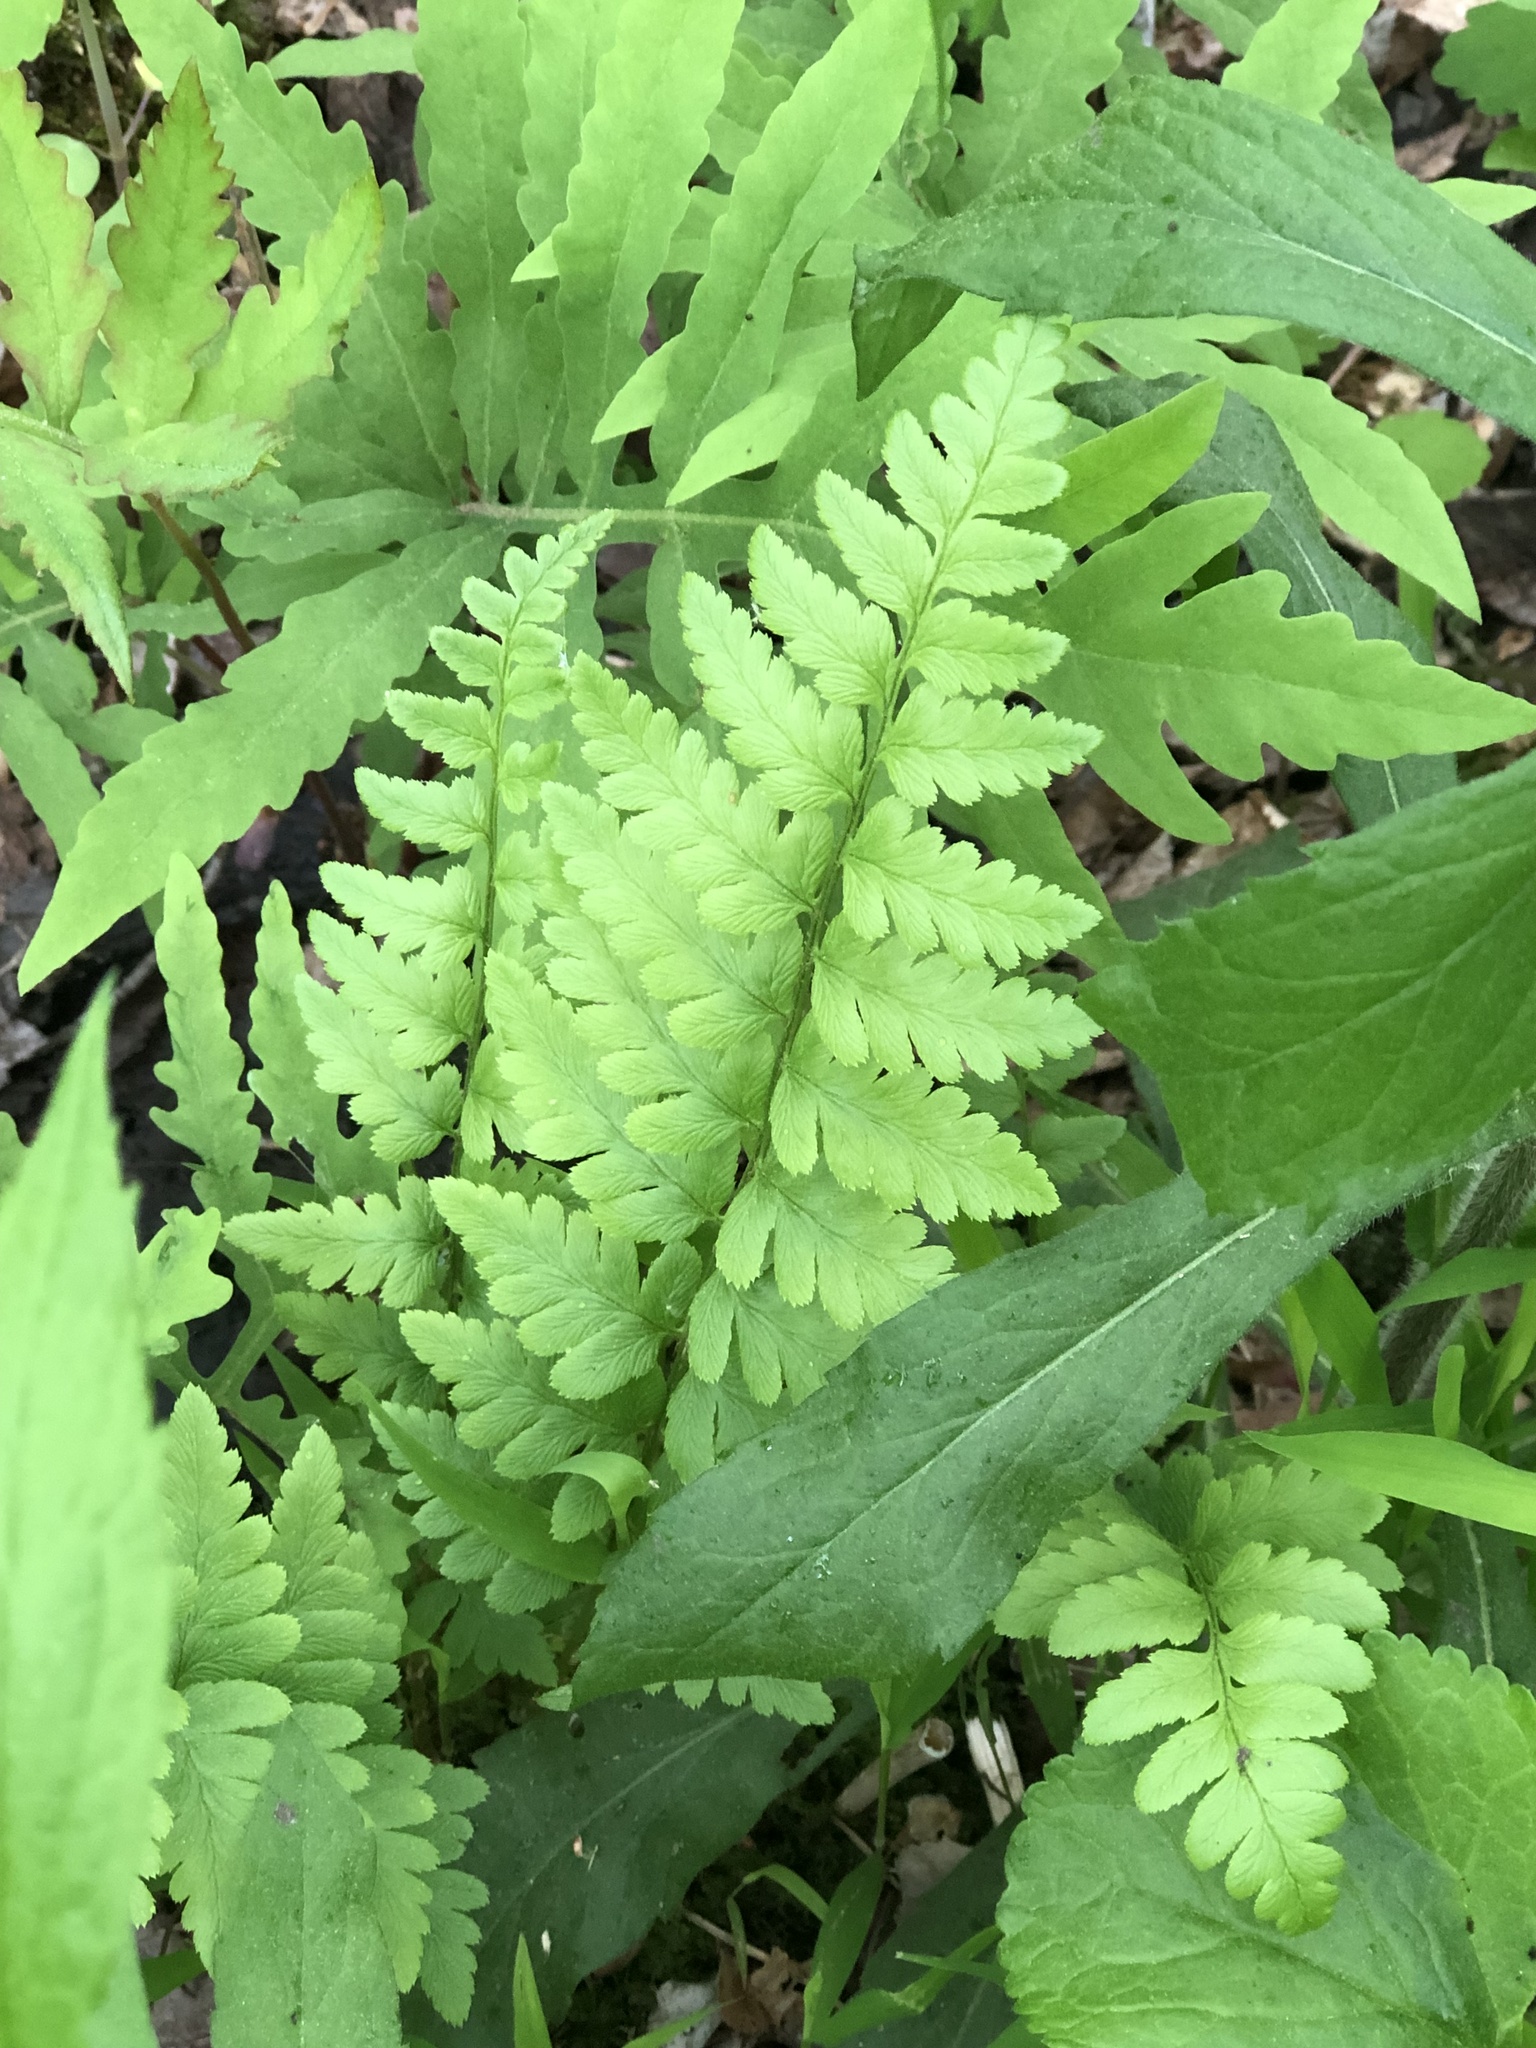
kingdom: Plantae
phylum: Tracheophyta
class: Polypodiopsida
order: Polypodiales
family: Dryopteridaceae
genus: Dryopteris
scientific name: Dryopteris carthusiana
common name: Narrow buckler-fern
